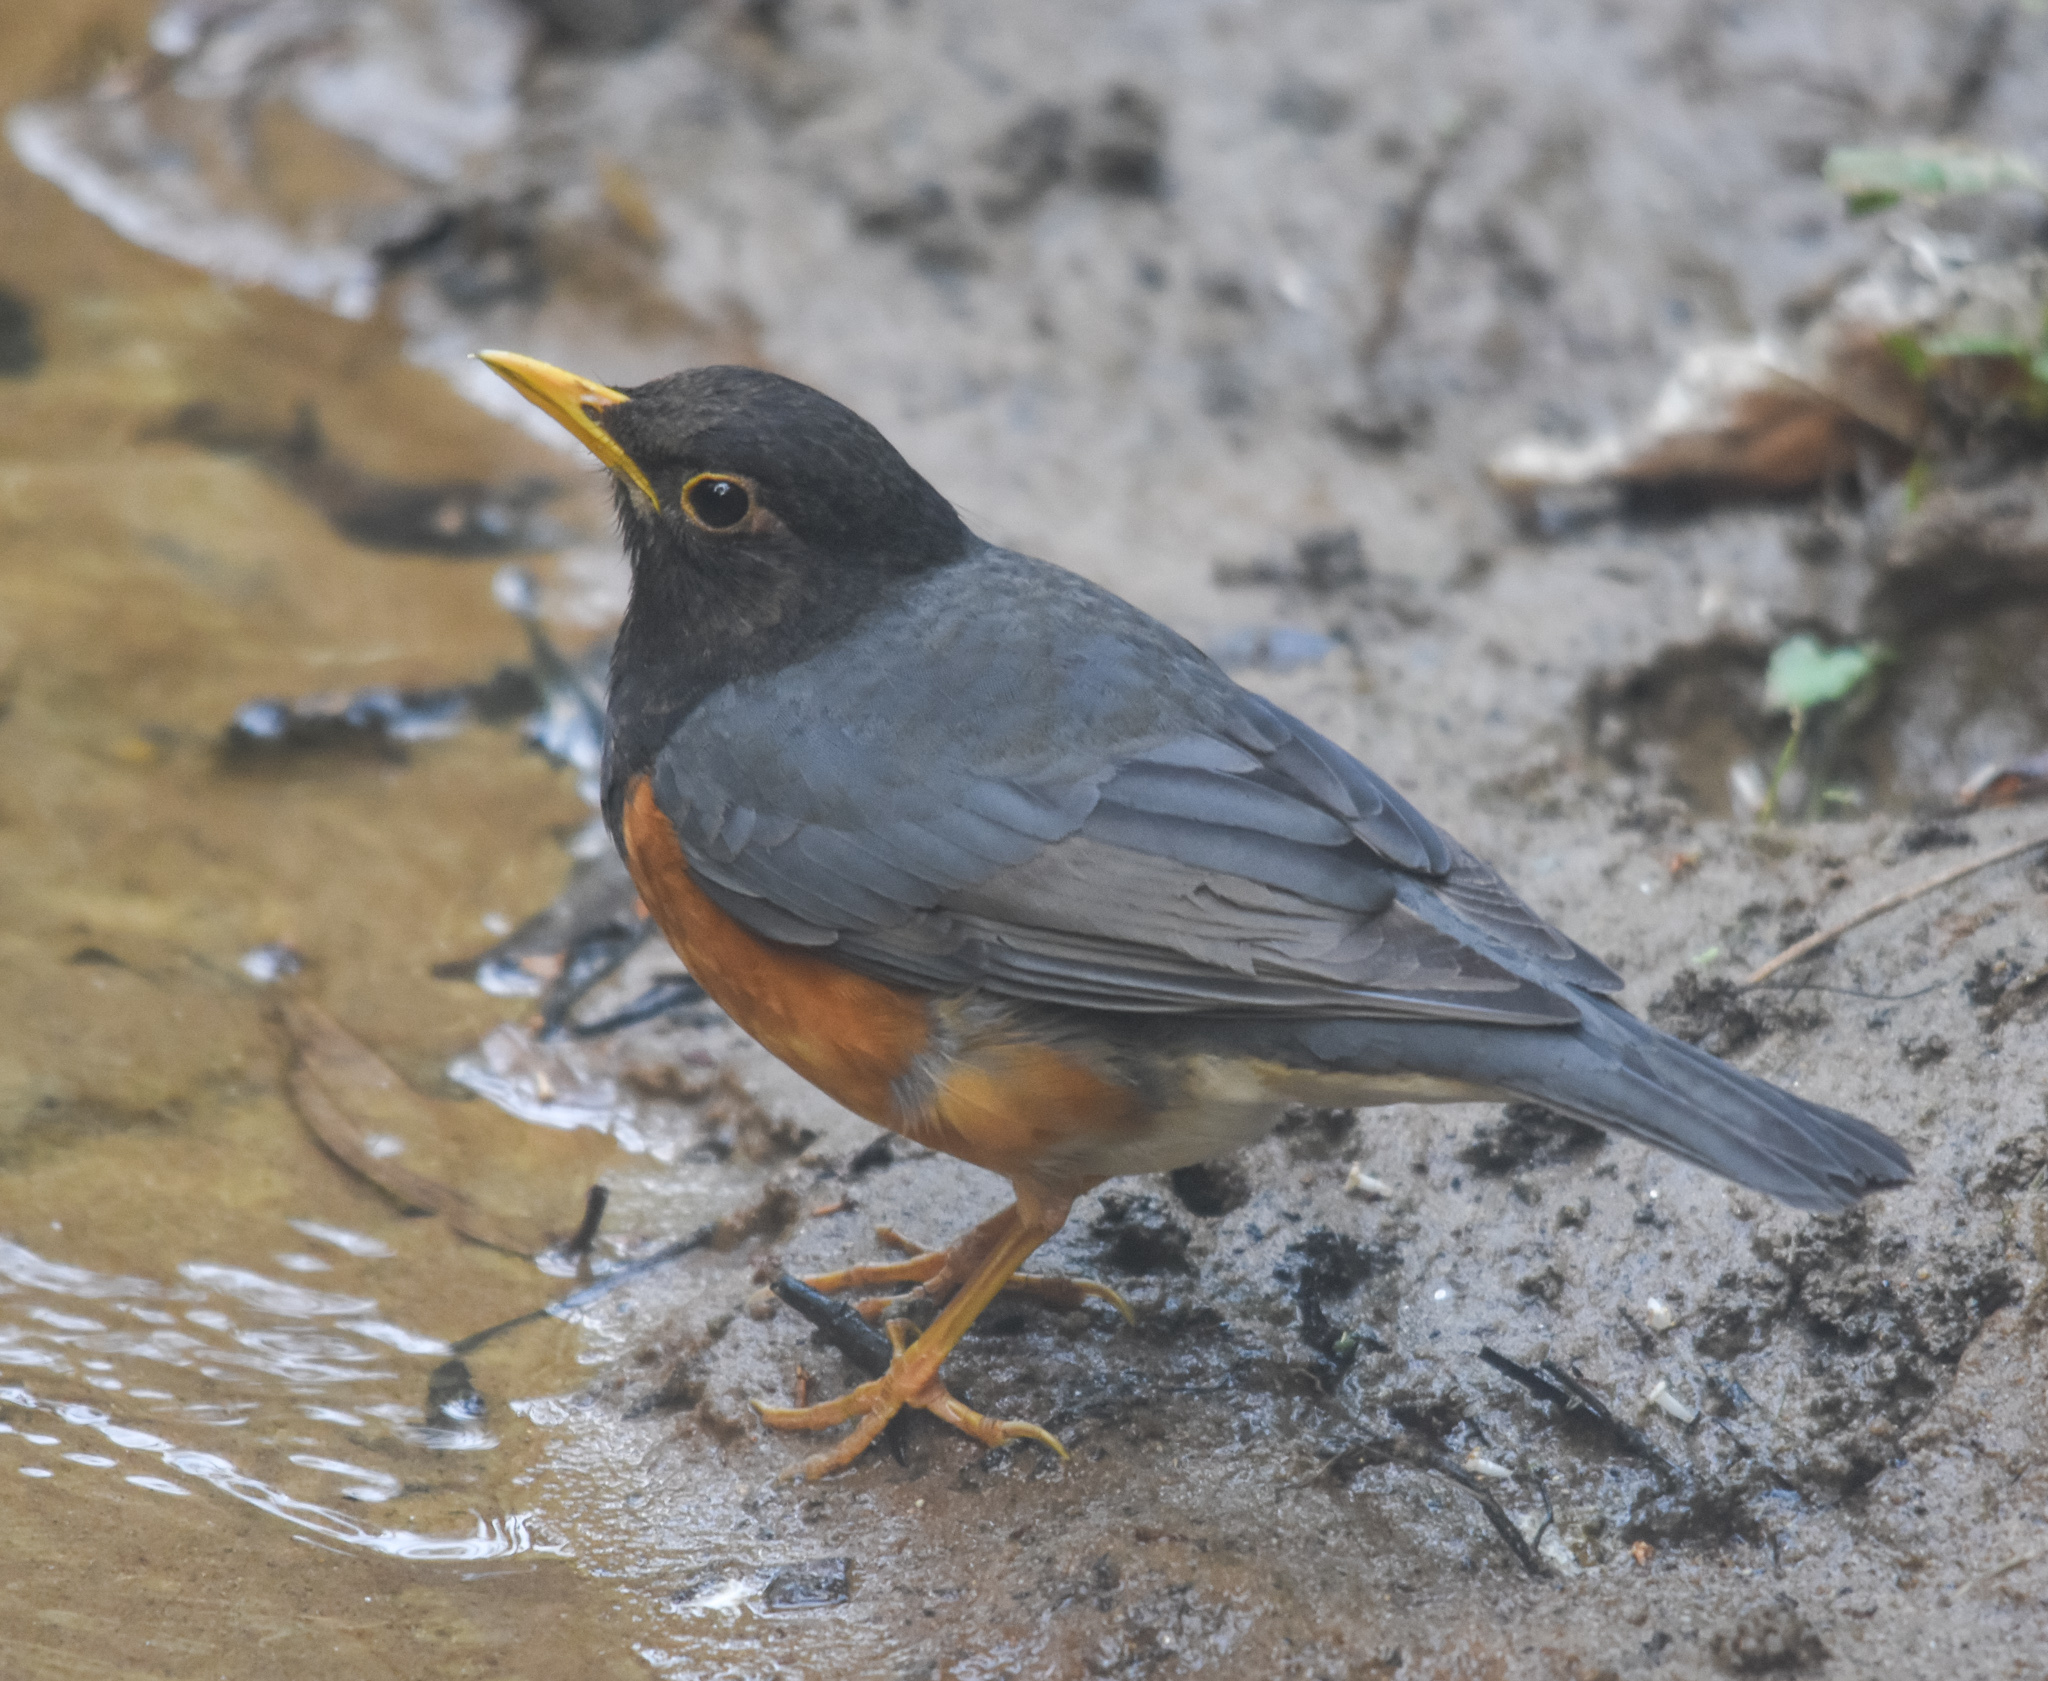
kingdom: Animalia
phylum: Chordata
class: Aves
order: Passeriformes
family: Turdidae
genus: Turdus
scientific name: Turdus dissimilis
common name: Black-breasted thrush
